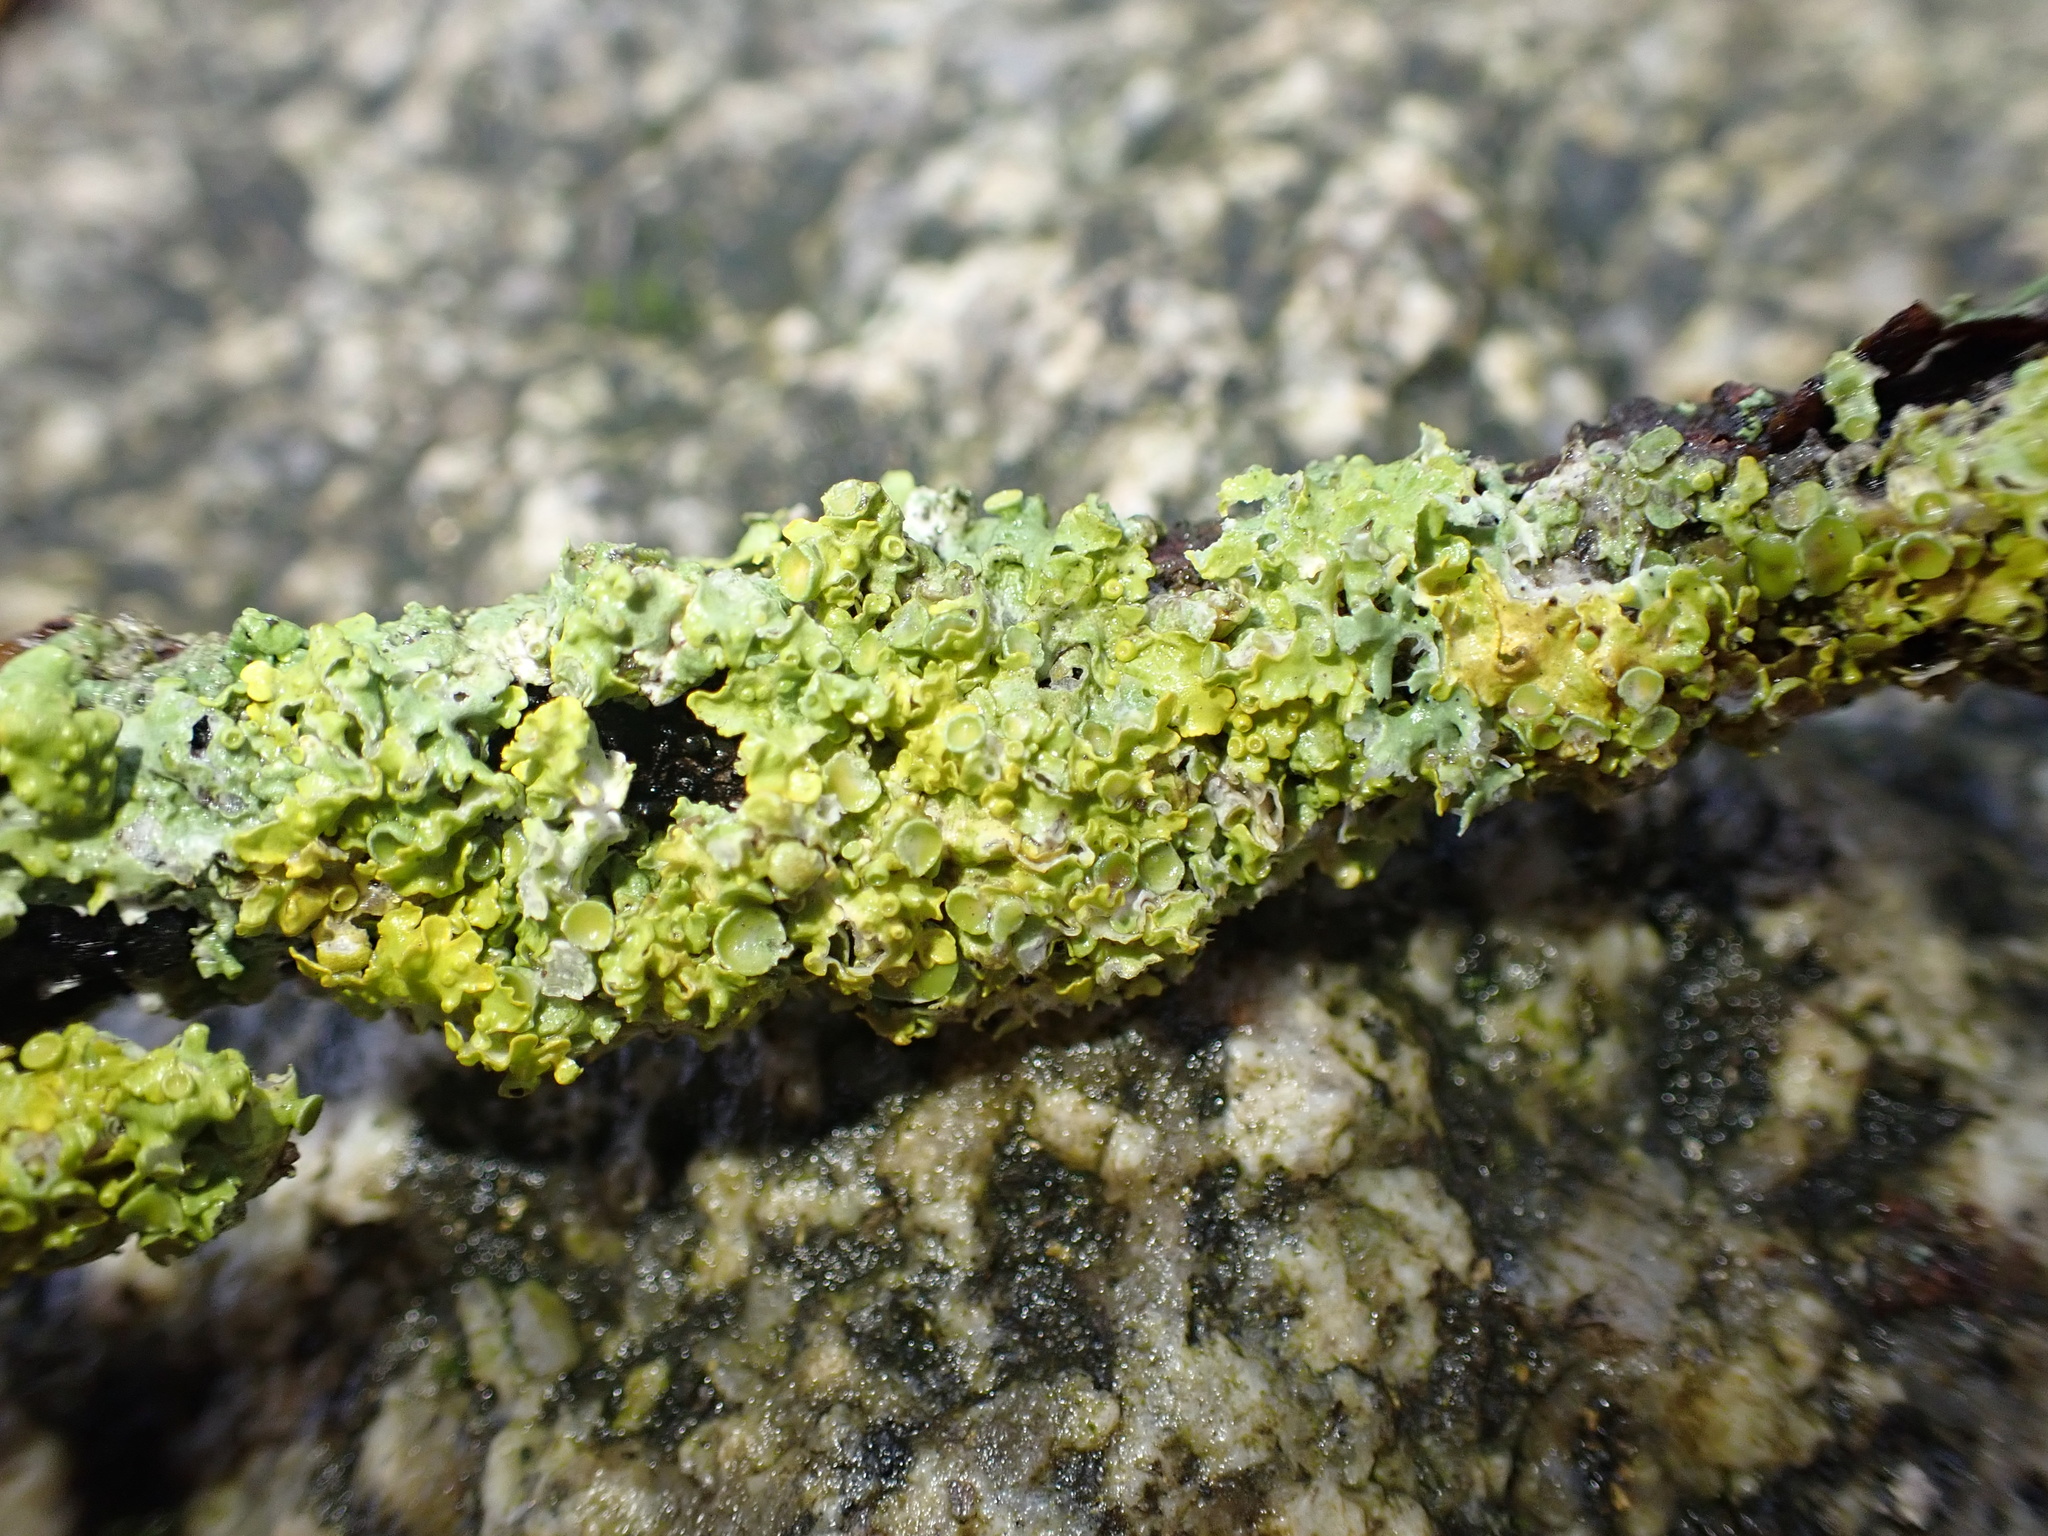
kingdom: Fungi
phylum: Ascomycota
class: Lecanoromycetes
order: Teloschistales
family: Teloschistaceae
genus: Xanthoria
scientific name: Xanthoria parietina
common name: Common orange lichen
